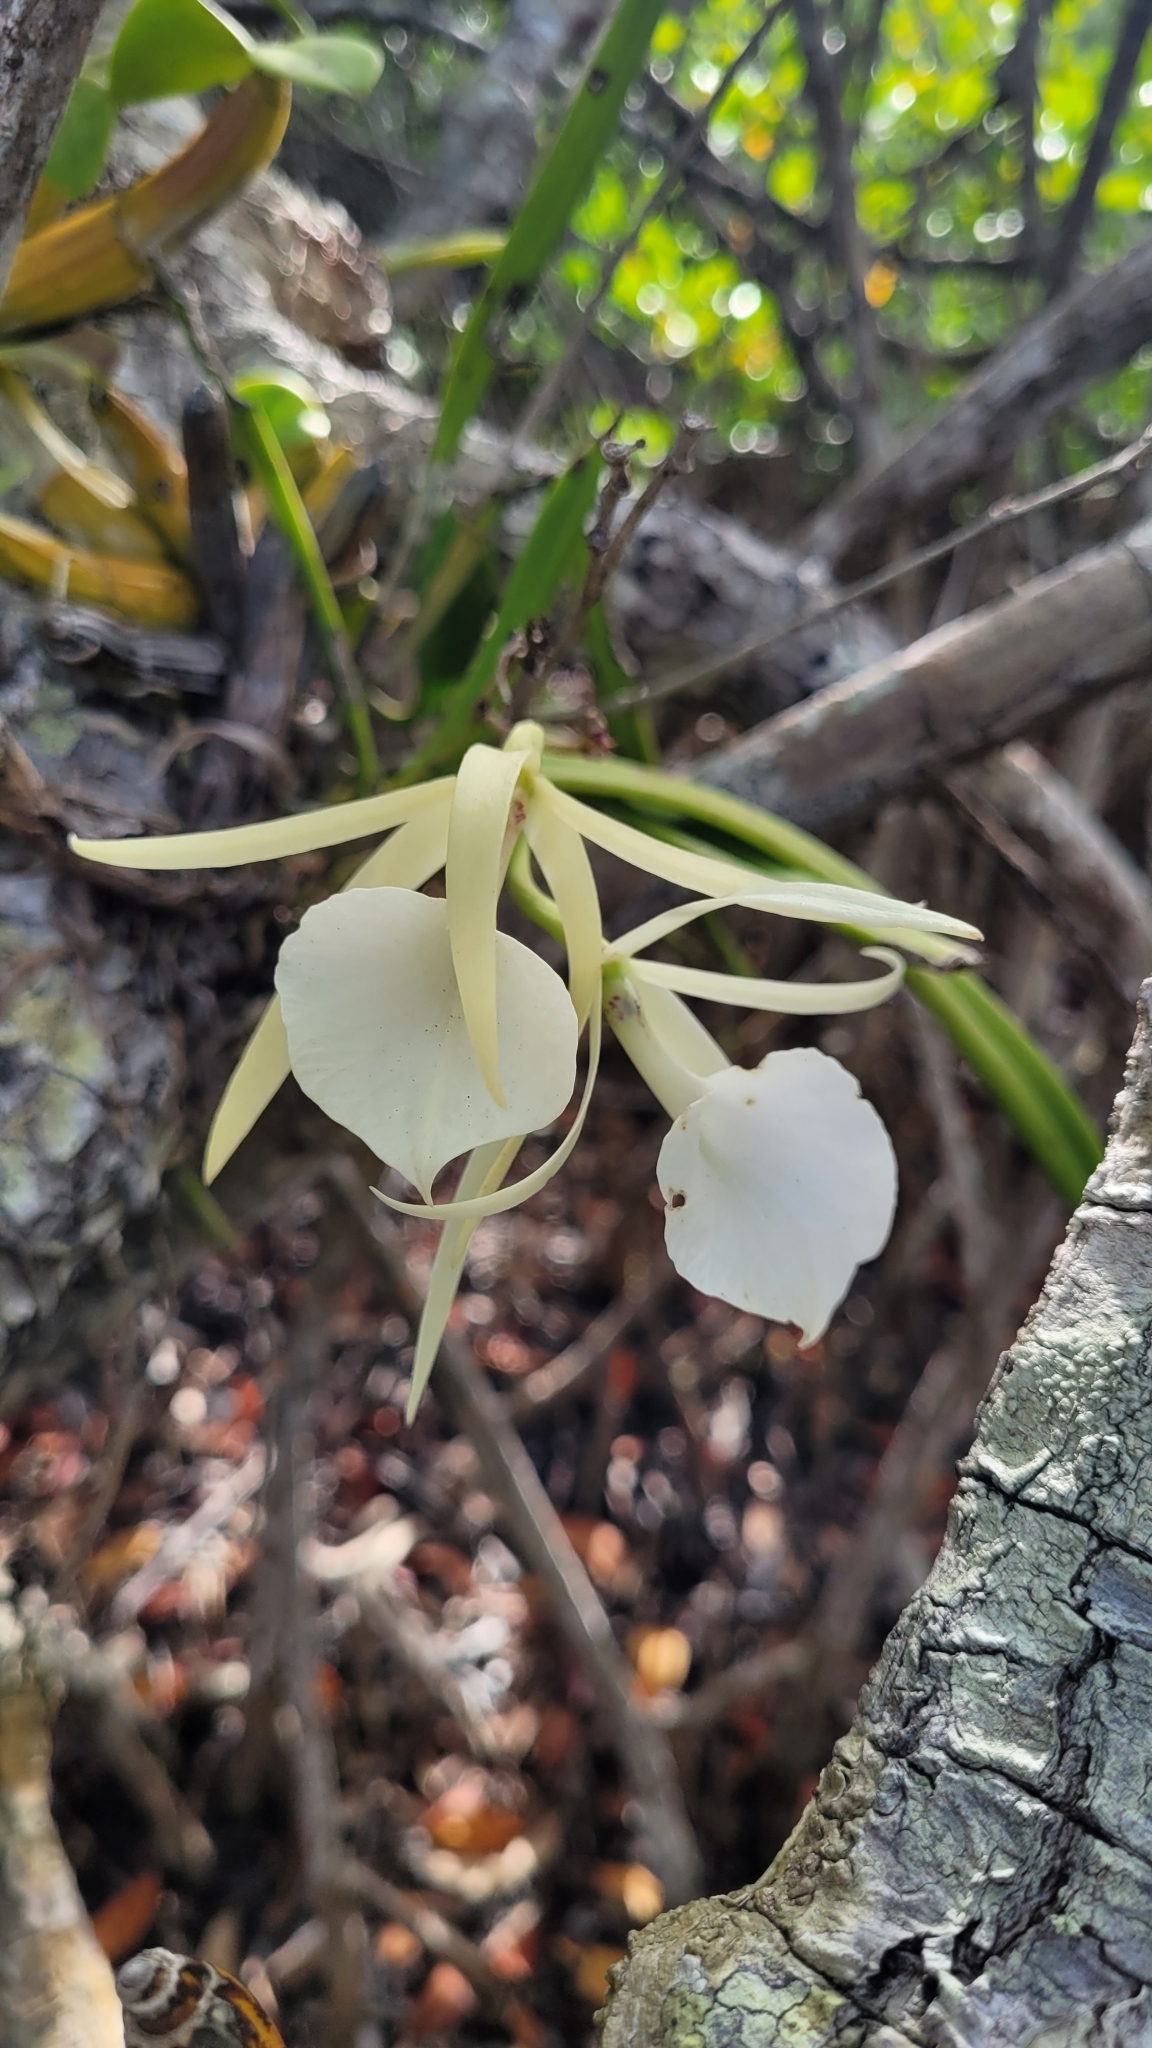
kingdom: Plantae
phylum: Tracheophyta
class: Liliopsida
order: Asparagales
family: Orchidaceae
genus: Brassavola
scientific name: Brassavola nodosa
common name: Lady of the night
